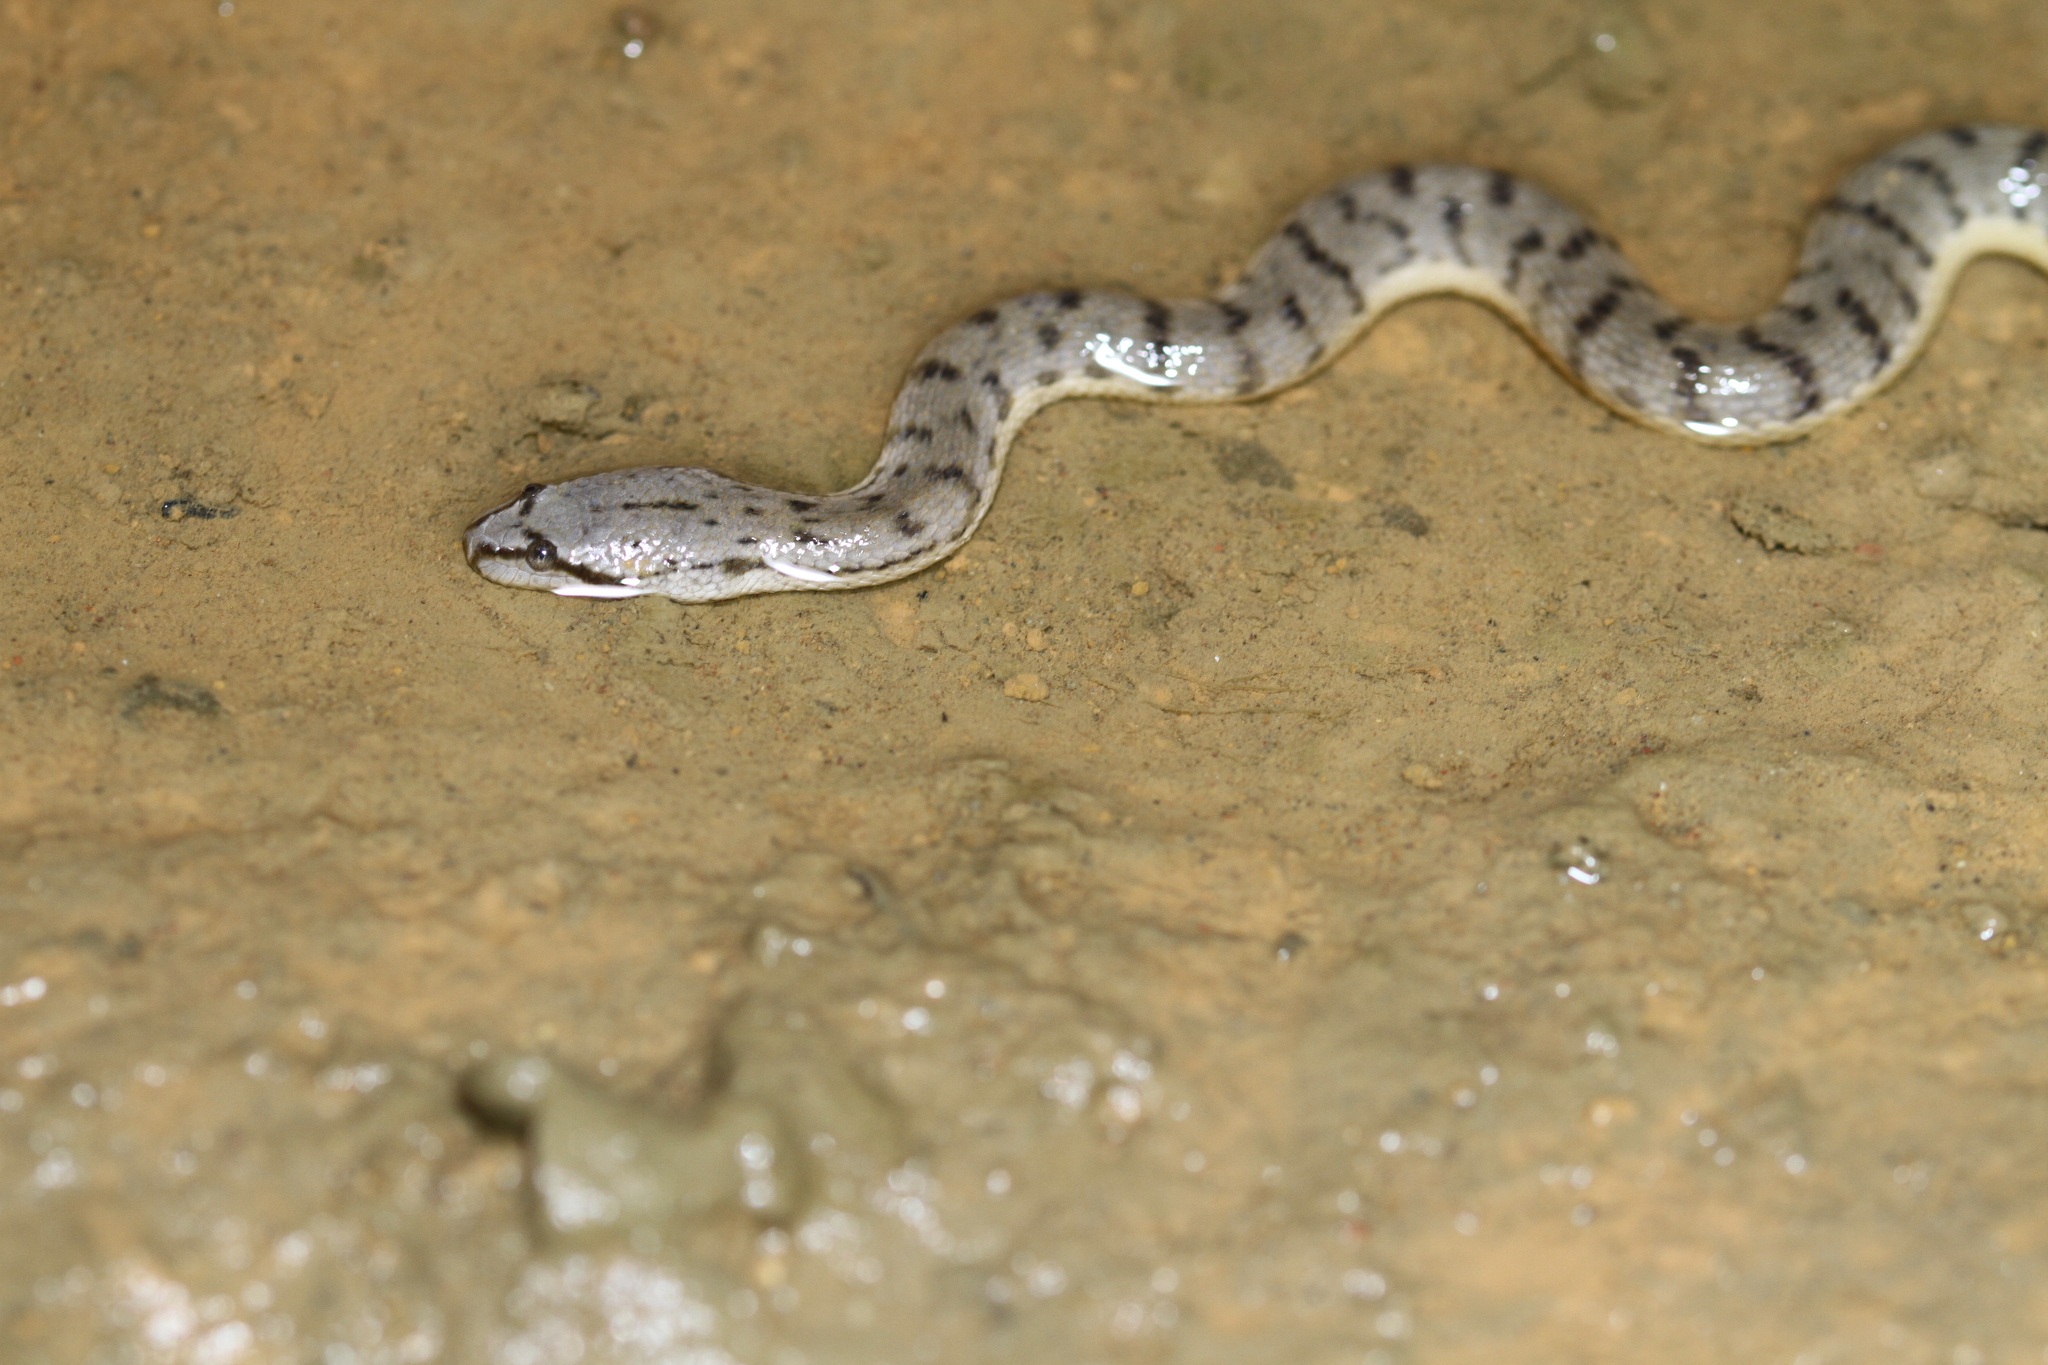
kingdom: Animalia
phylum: Chordata
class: Squamata
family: Homalopsidae
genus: Cerberus
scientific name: Cerberus schneiderii
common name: Southeast asian bockadam
